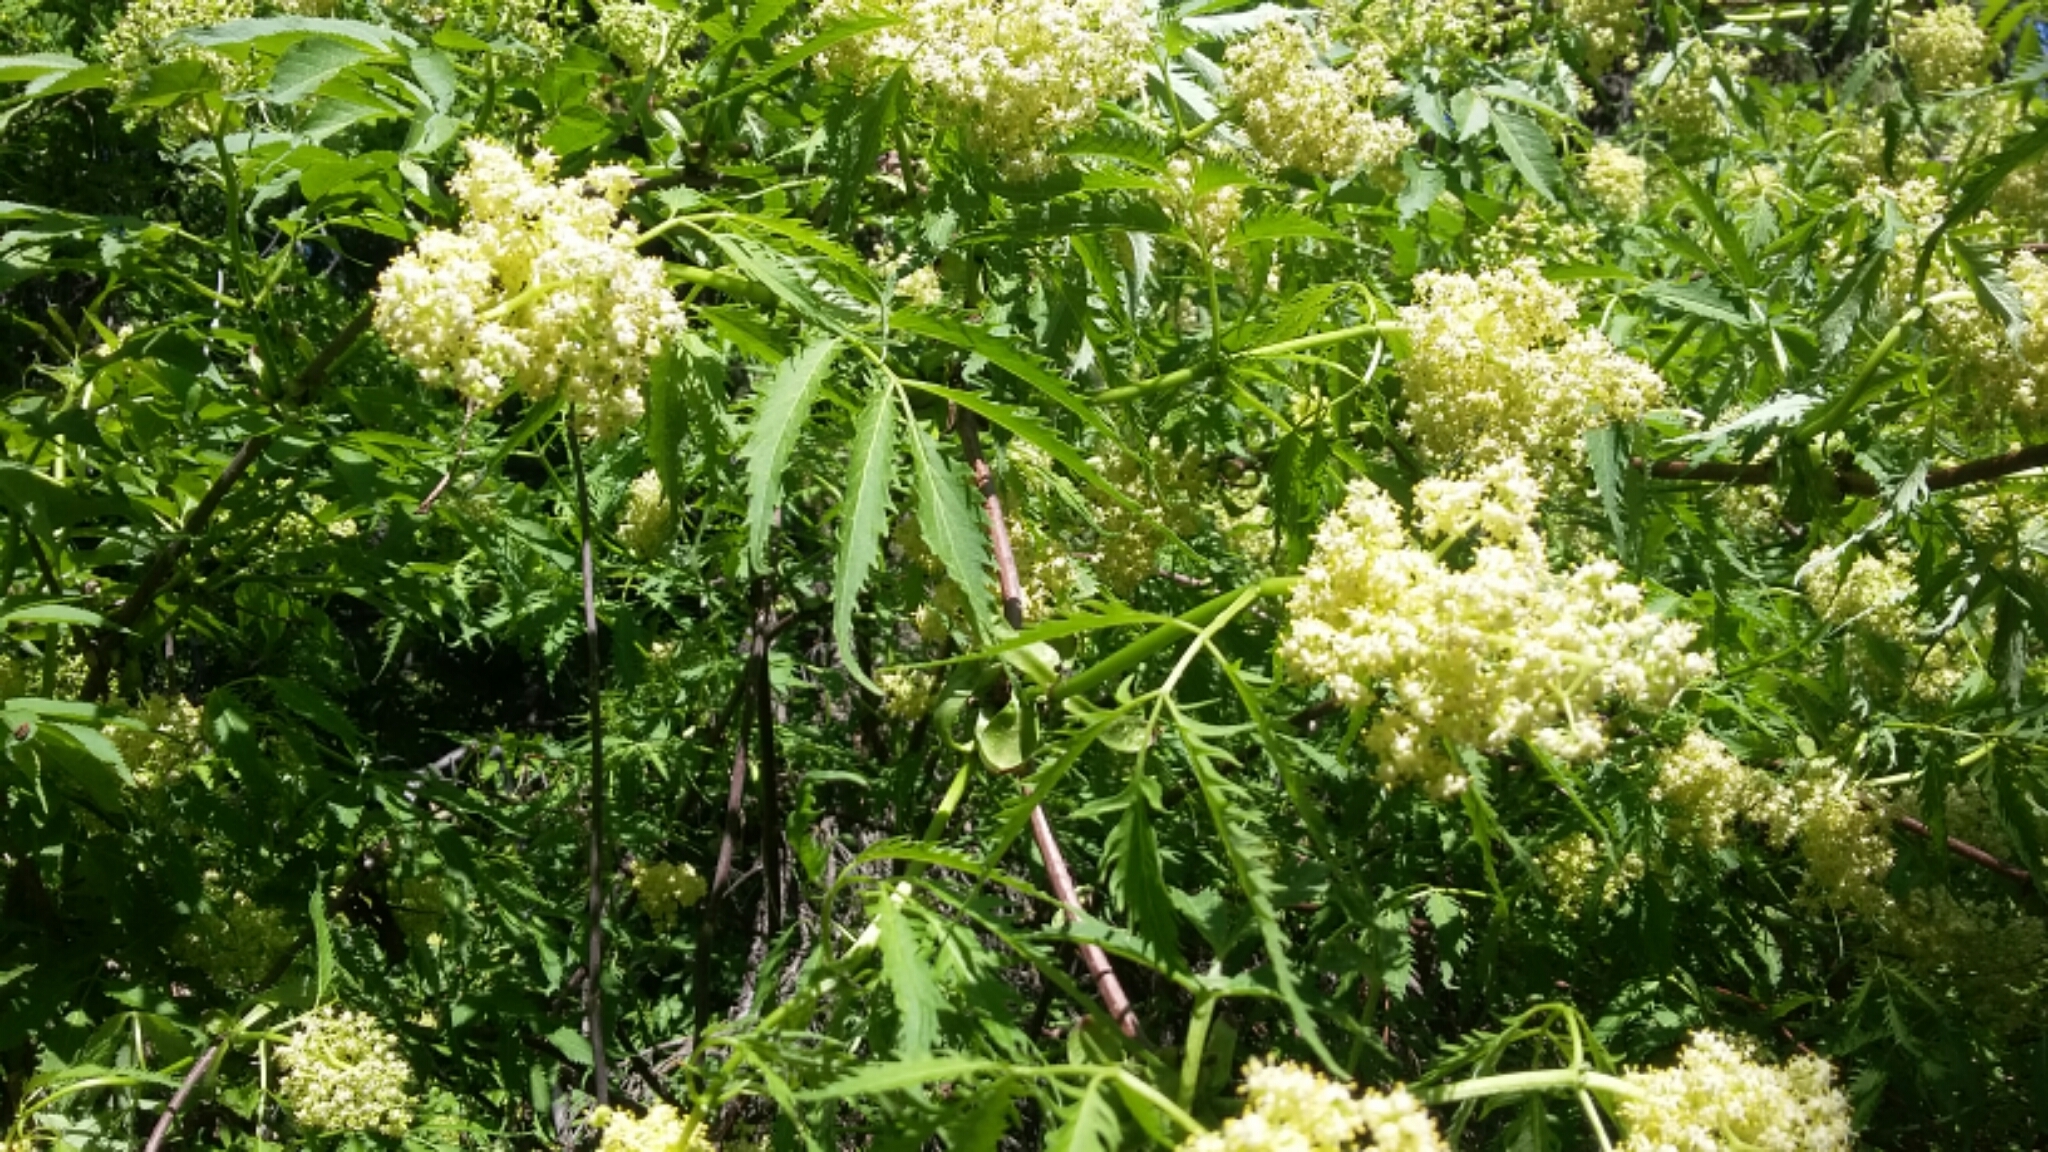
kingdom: Plantae
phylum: Tracheophyta
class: Magnoliopsida
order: Dipsacales
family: Viburnaceae
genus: Sambucus
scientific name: Sambucus racemosa
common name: Red-berried elder
